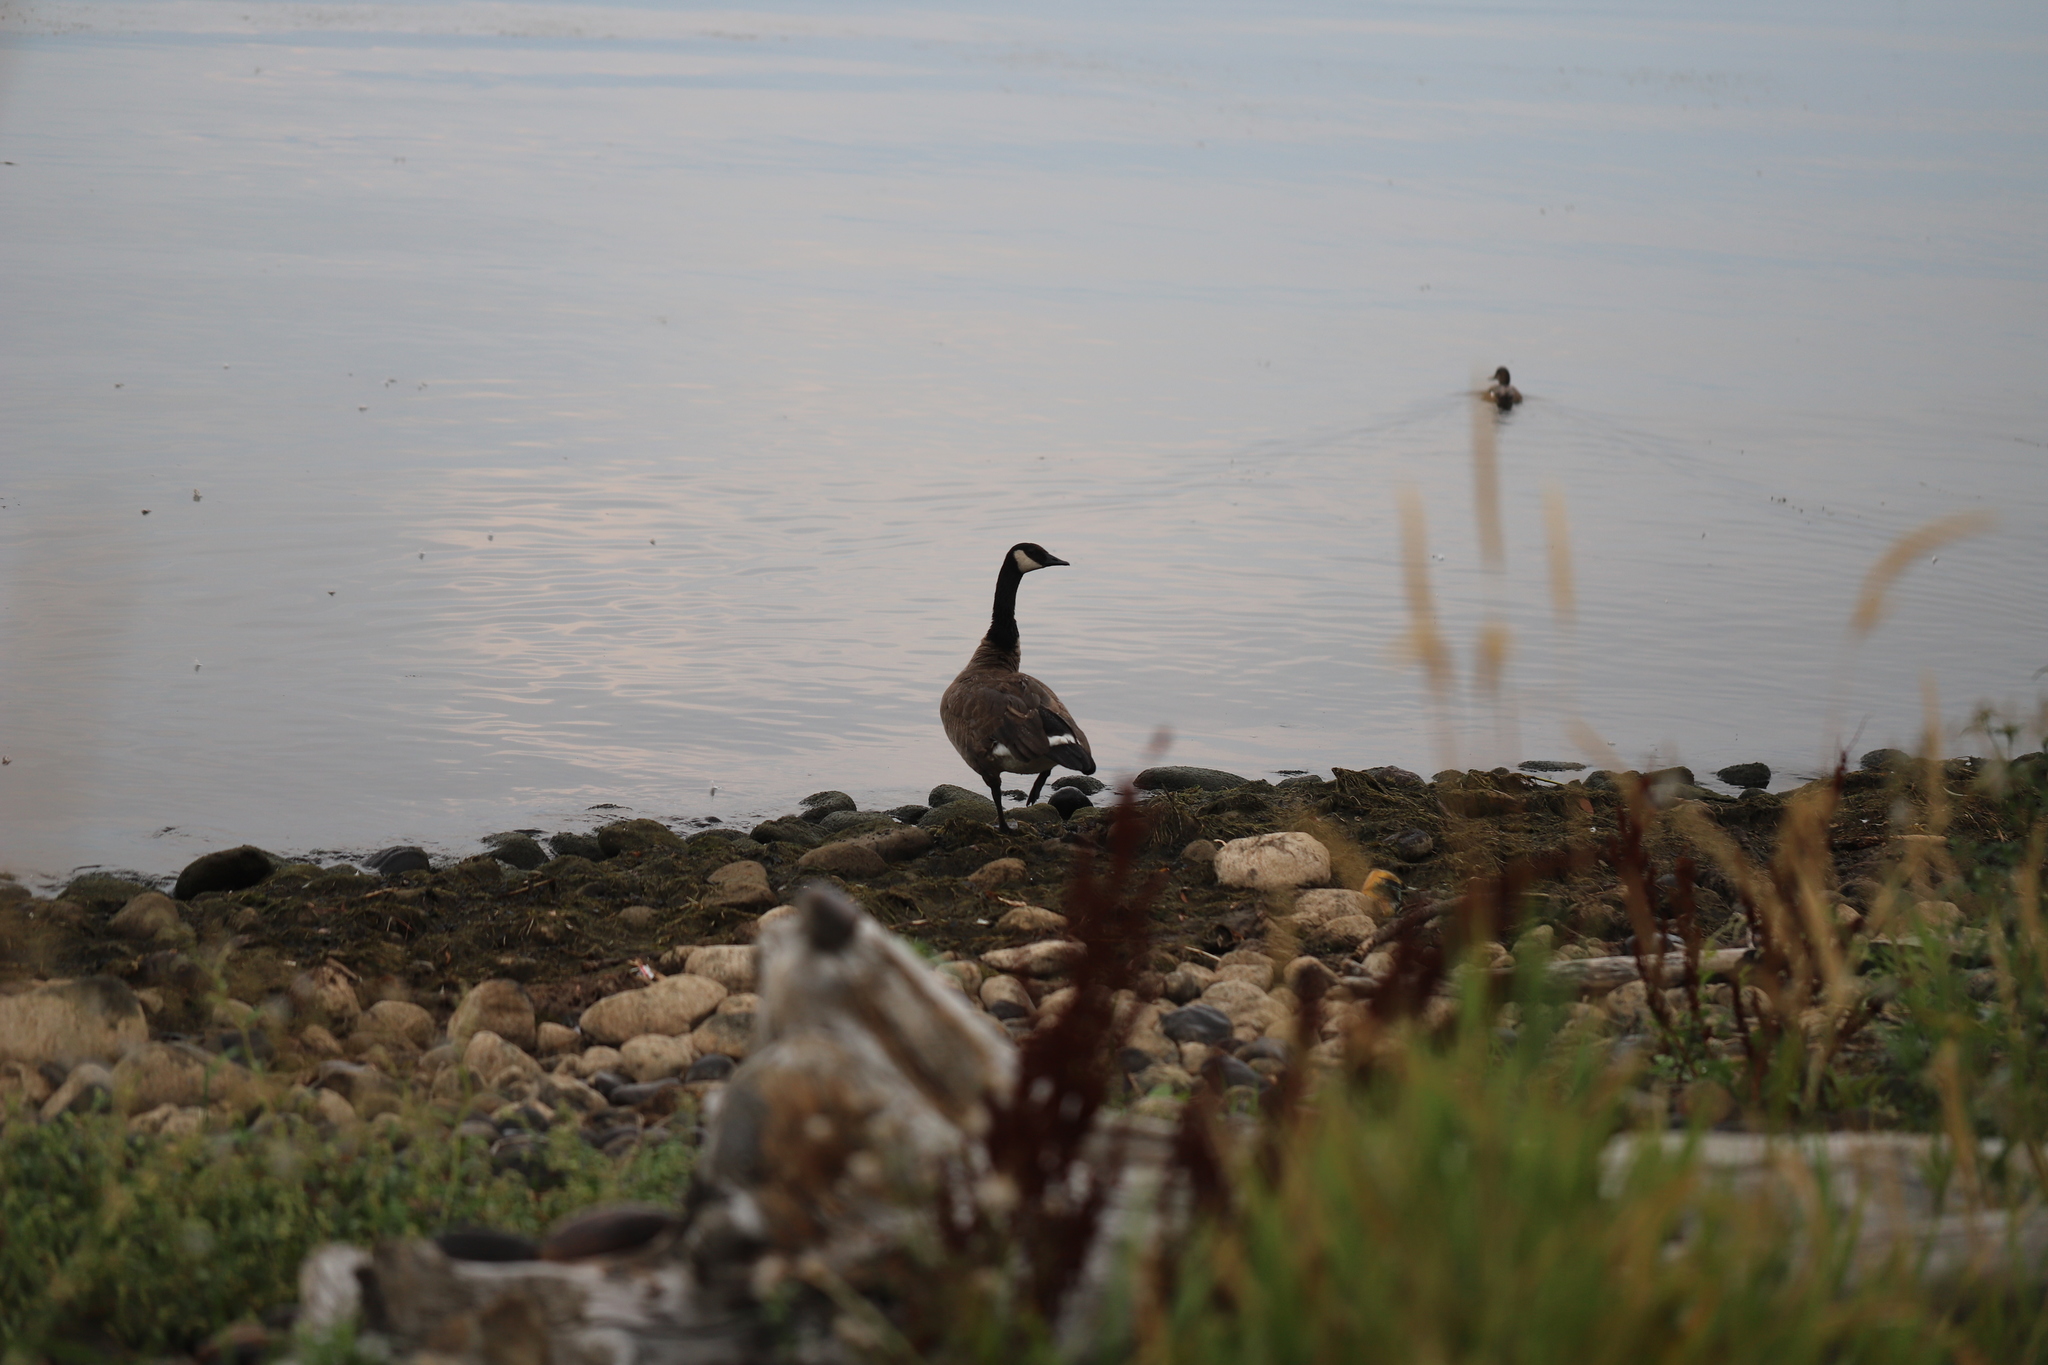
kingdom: Animalia
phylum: Chordata
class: Aves
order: Anseriformes
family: Anatidae
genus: Branta
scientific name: Branta canadensis
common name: Canada goose
